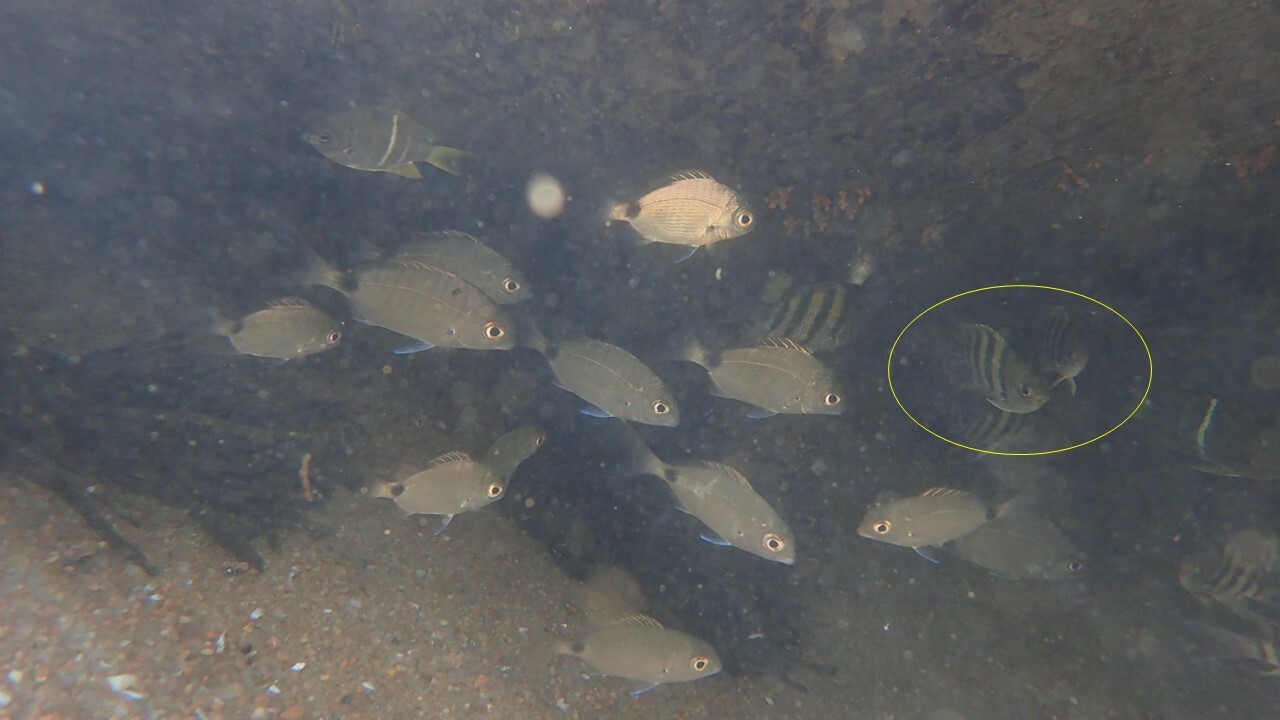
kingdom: Animalia
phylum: Chordata
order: Perciformes
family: Pomacentridae
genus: Abudefduf
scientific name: Abudefduf vaigiensis
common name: Indo-pacific sergeant
